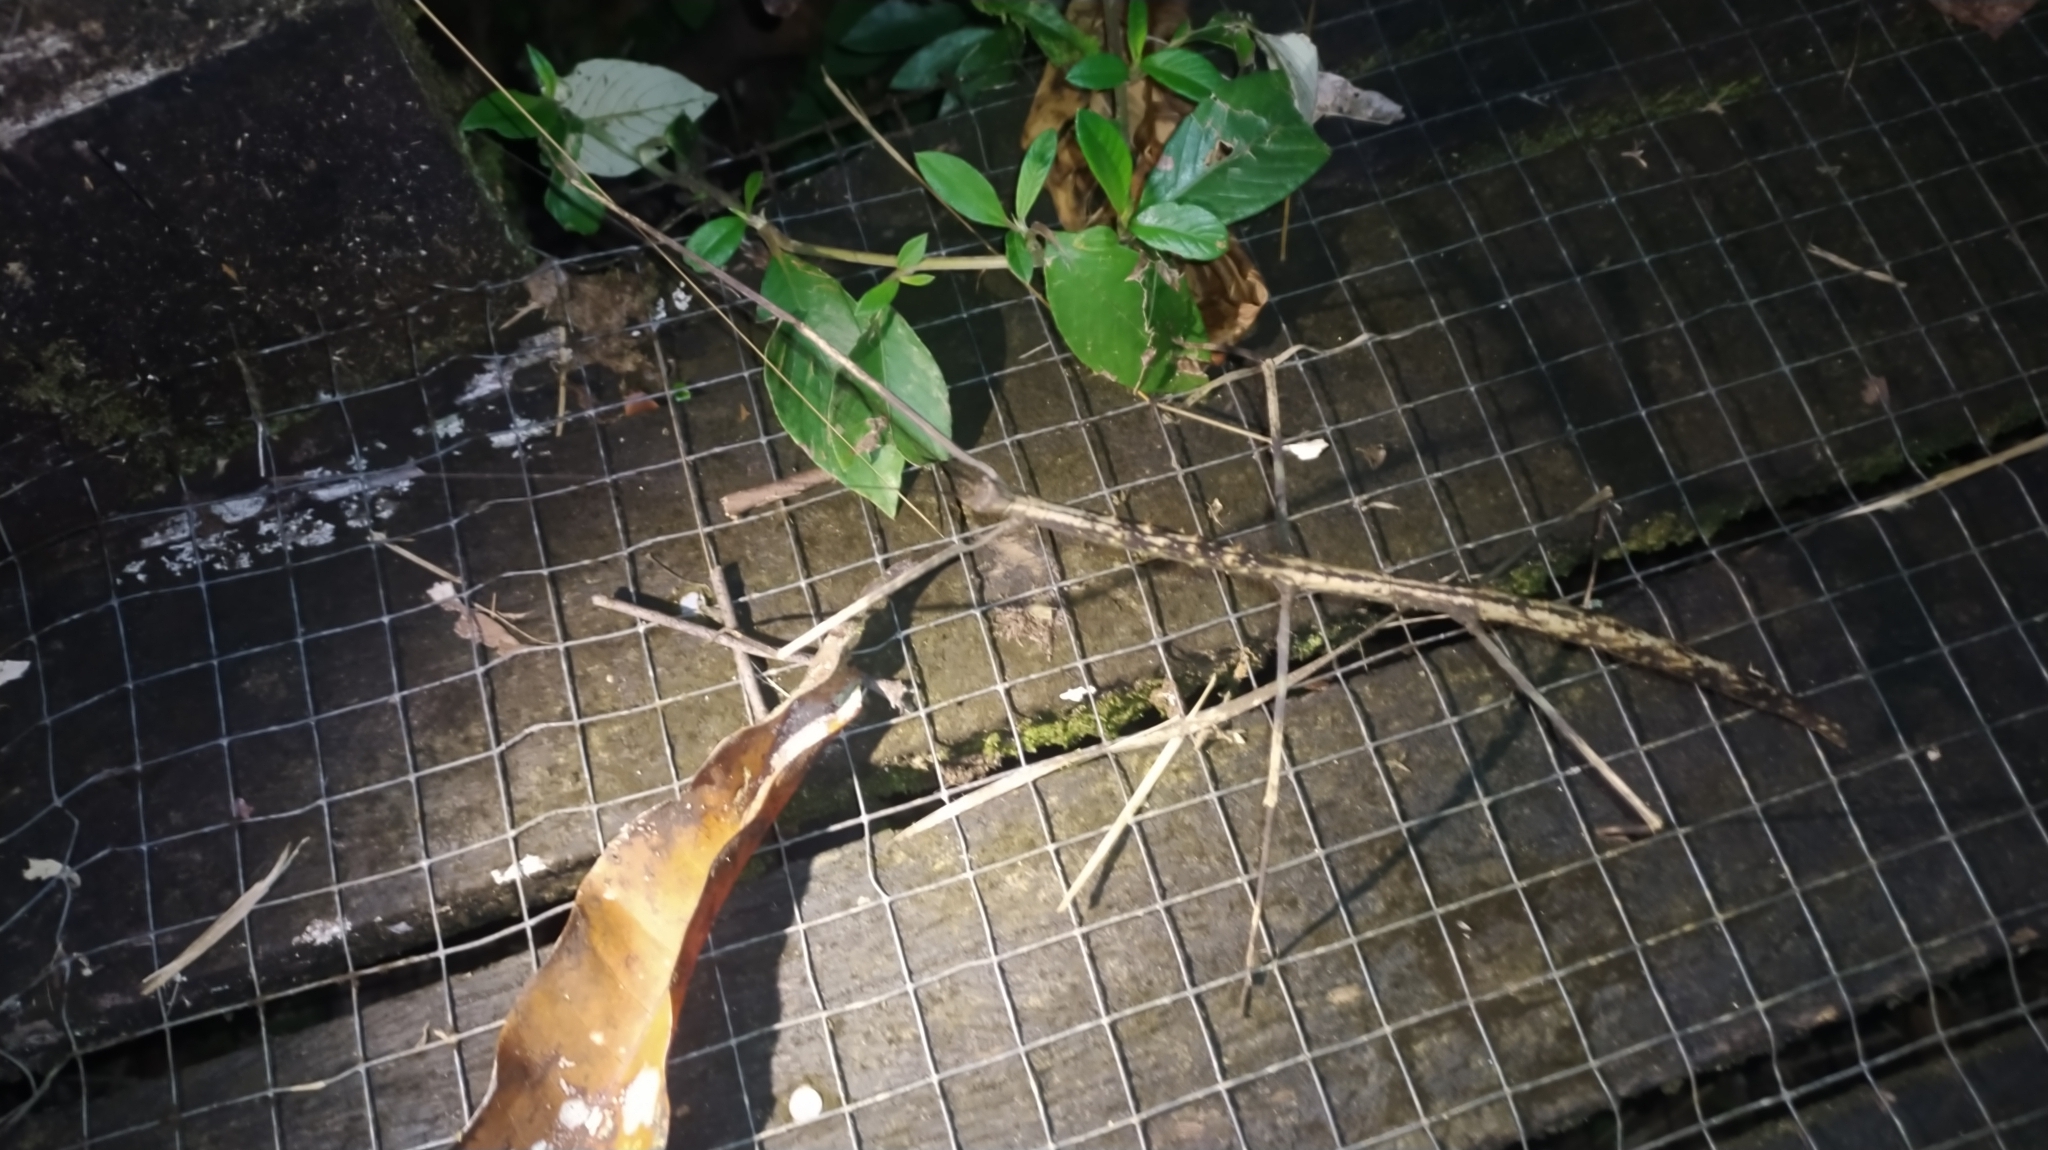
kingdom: Animalia
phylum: Arthropoda
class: Insecta
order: Phasmida
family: Diapheromeridae
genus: Phanocloidea
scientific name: Phanocloidea muricata
